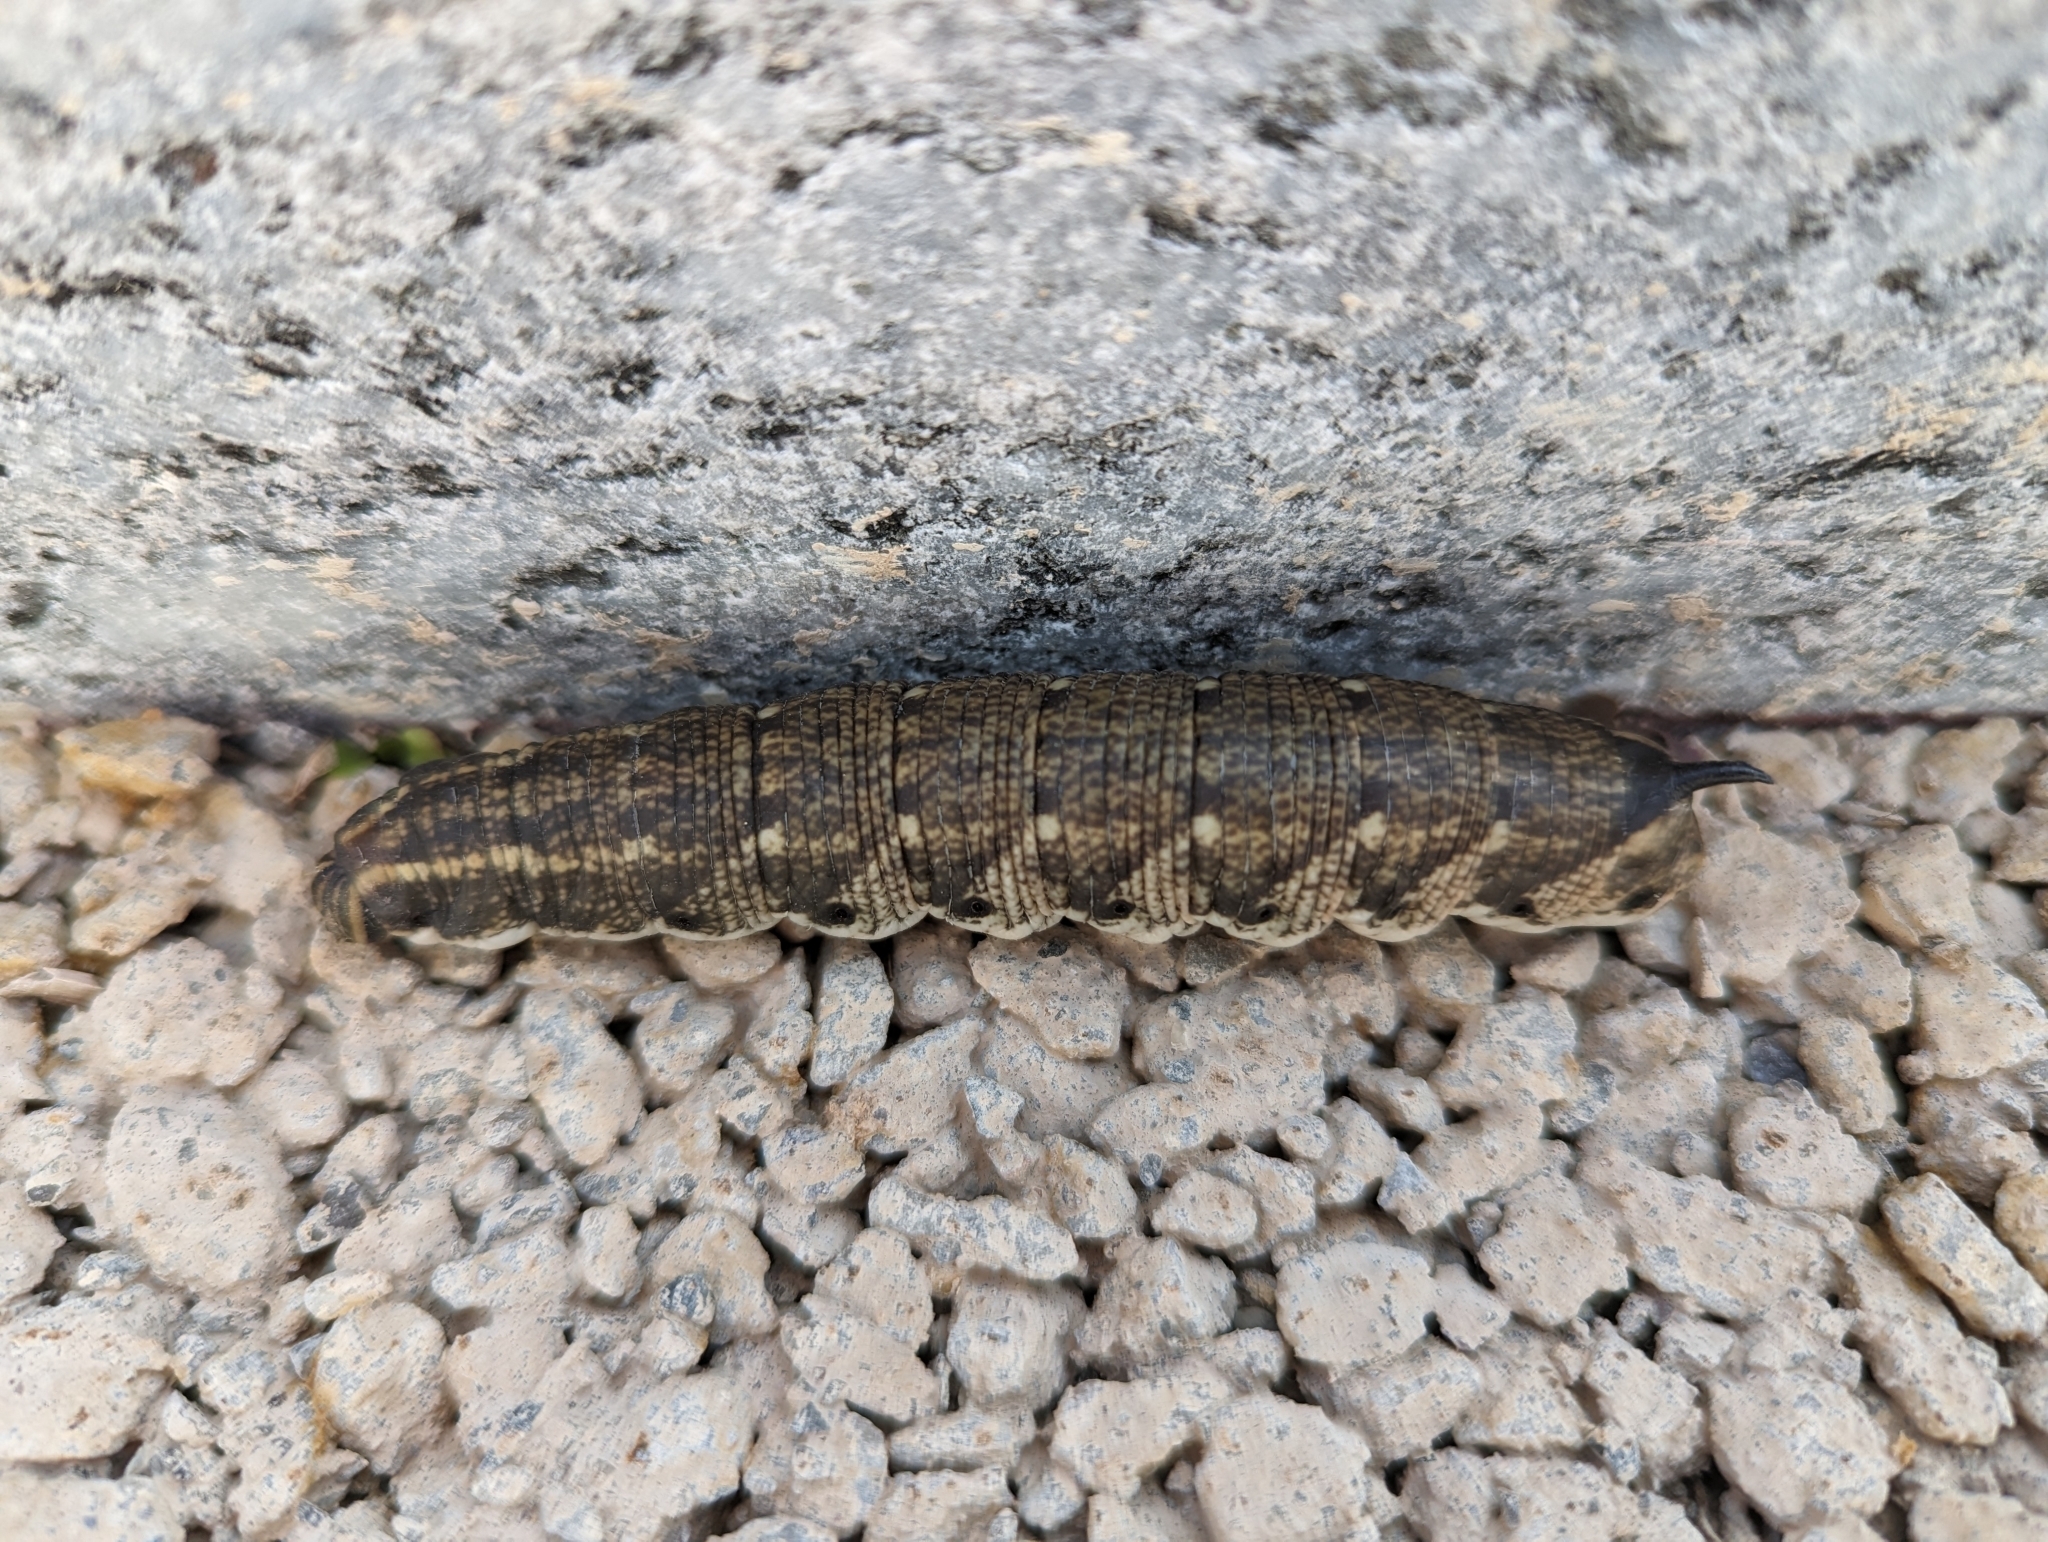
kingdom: Animalia
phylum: Arthropoda
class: Insecta
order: Lepidoptera
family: Sphingidae
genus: Agrius
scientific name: Agrius convolvuli
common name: Convolvulus hawkmoth
